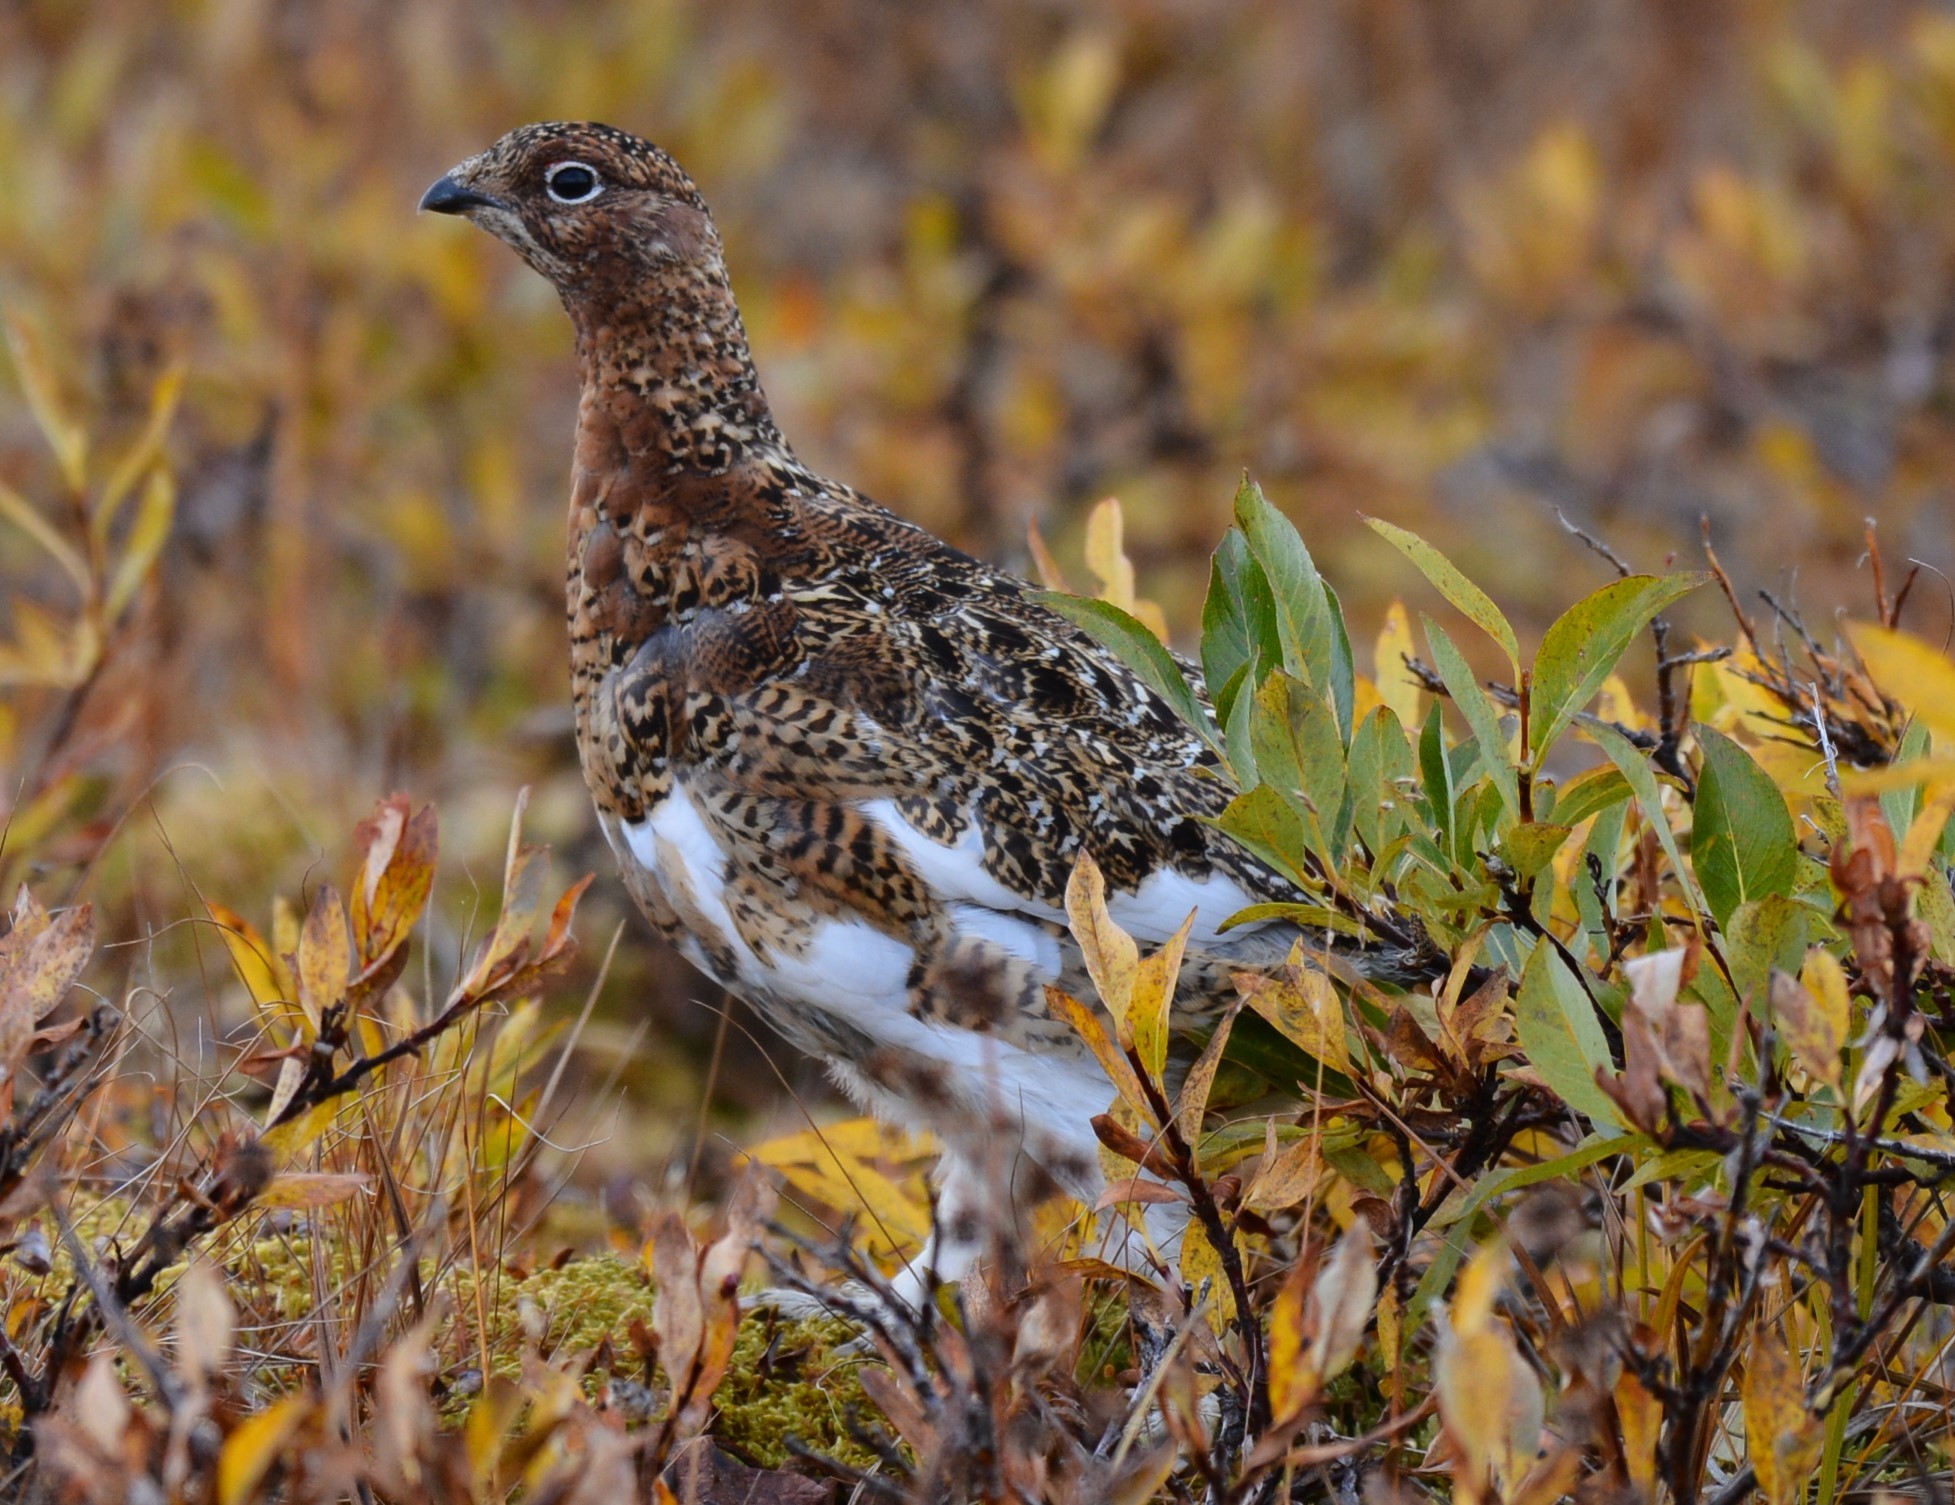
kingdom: Animalia
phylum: Chordata
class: Aves
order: Galliformes
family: Phasianidae
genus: Lagopus
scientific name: Lagopus lagopus
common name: Willow ptarmigan
